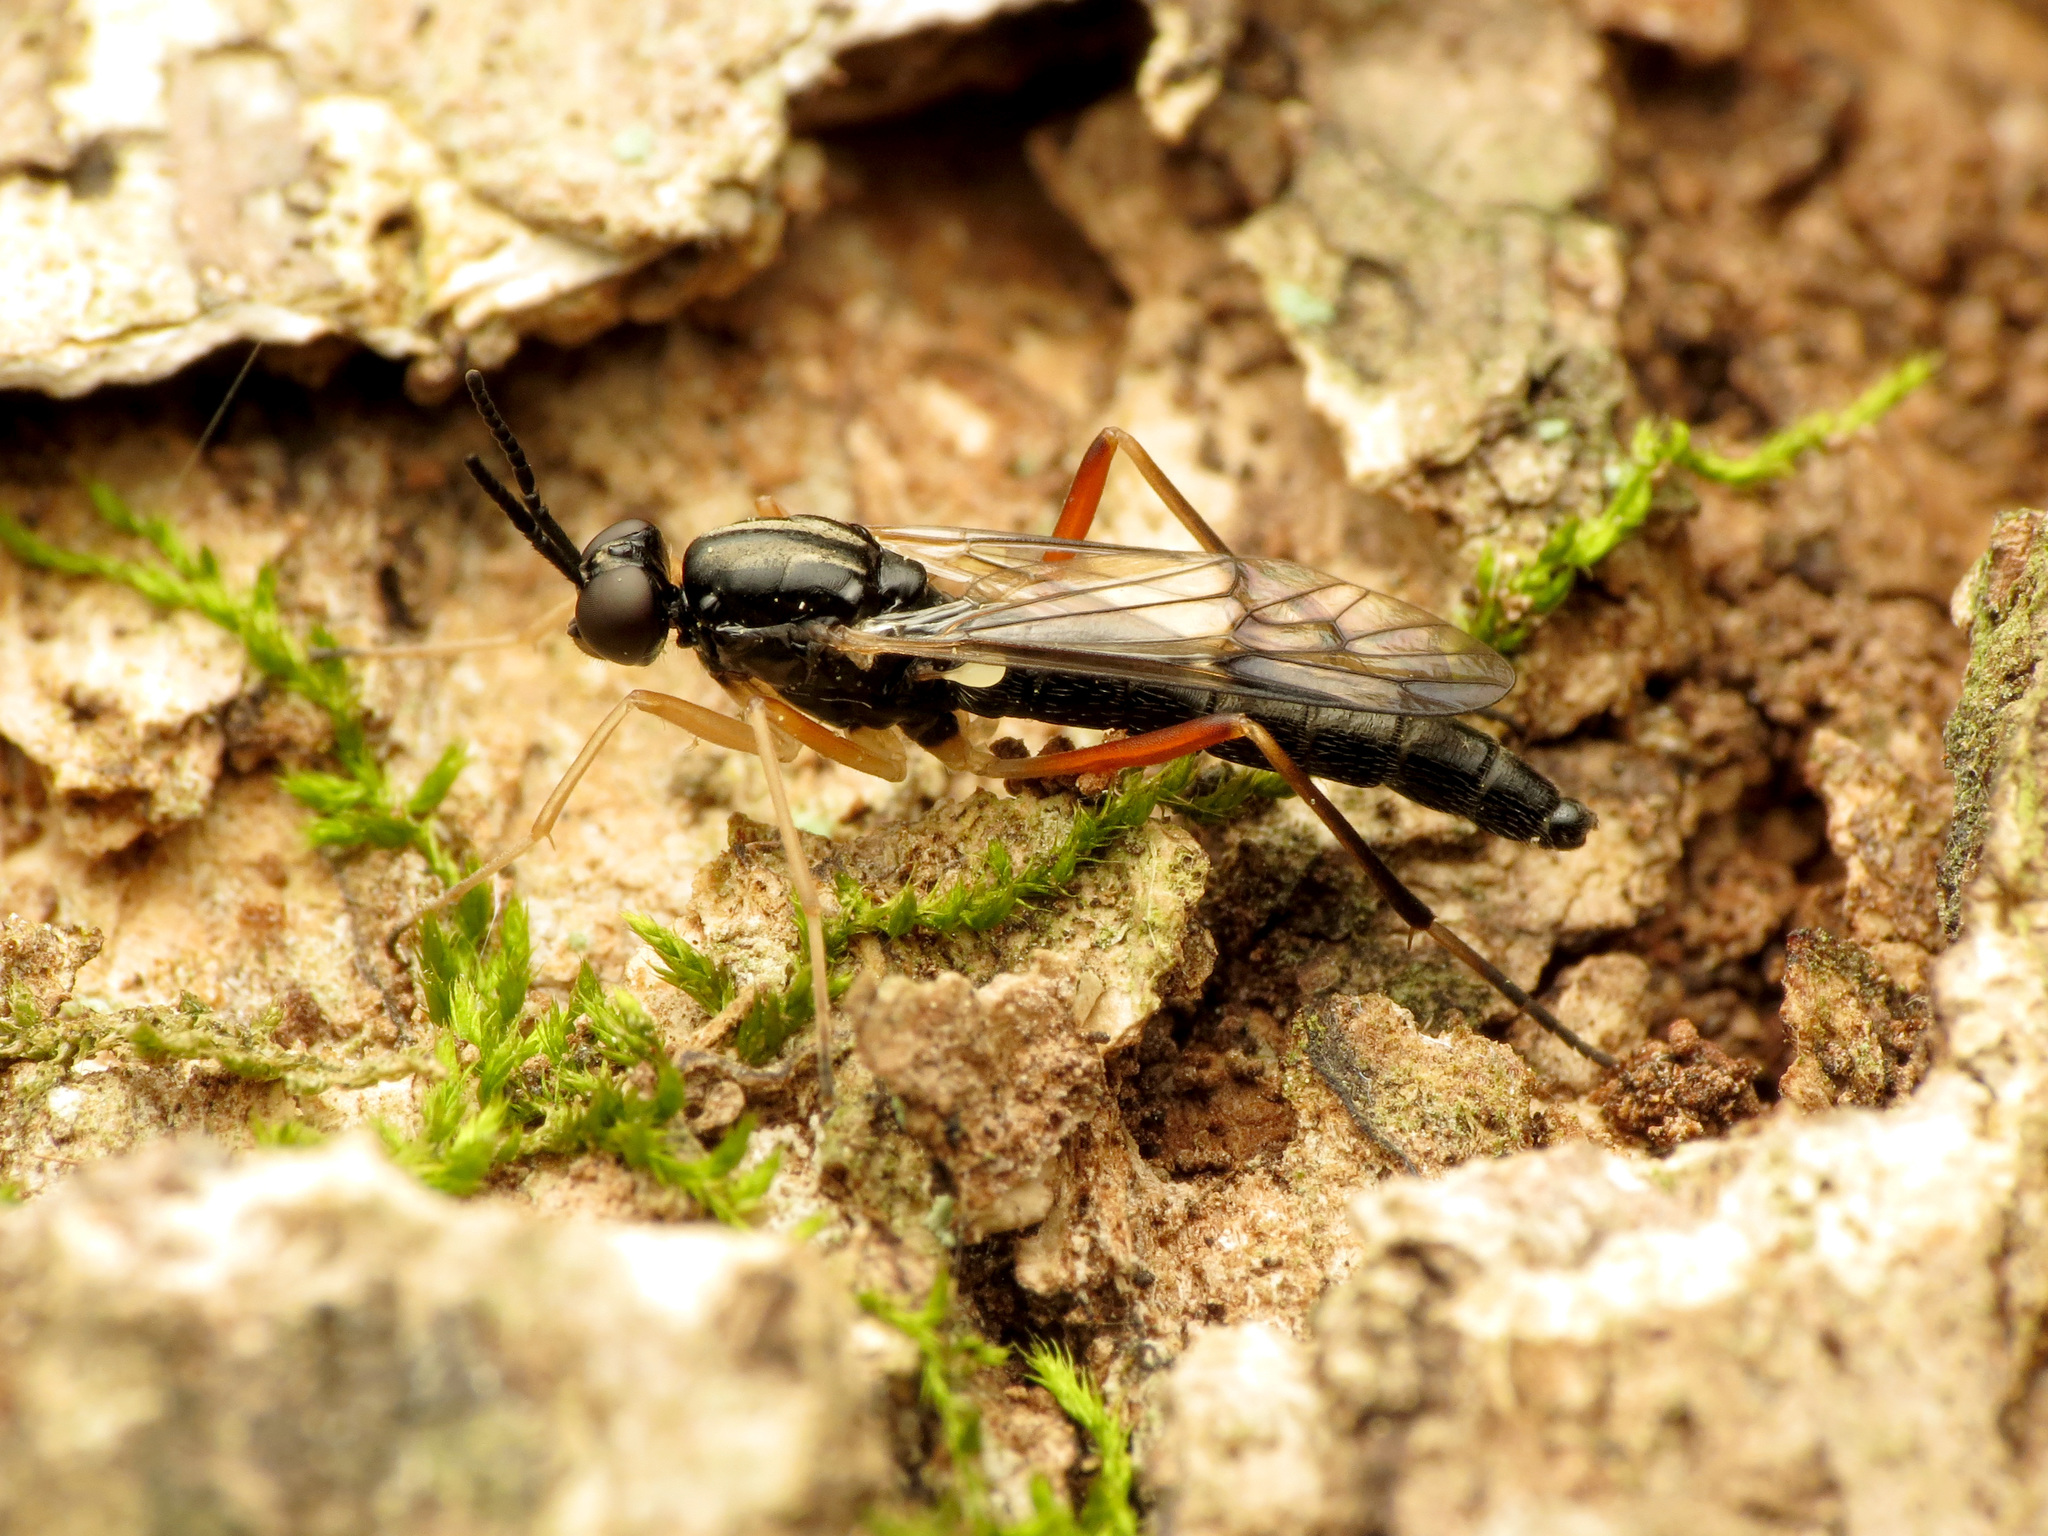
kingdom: Animalia
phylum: Arthropoda
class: Insecta
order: Diptera
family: Xylophagidae
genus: Xylophagus
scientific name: Xylophagus reflectens
